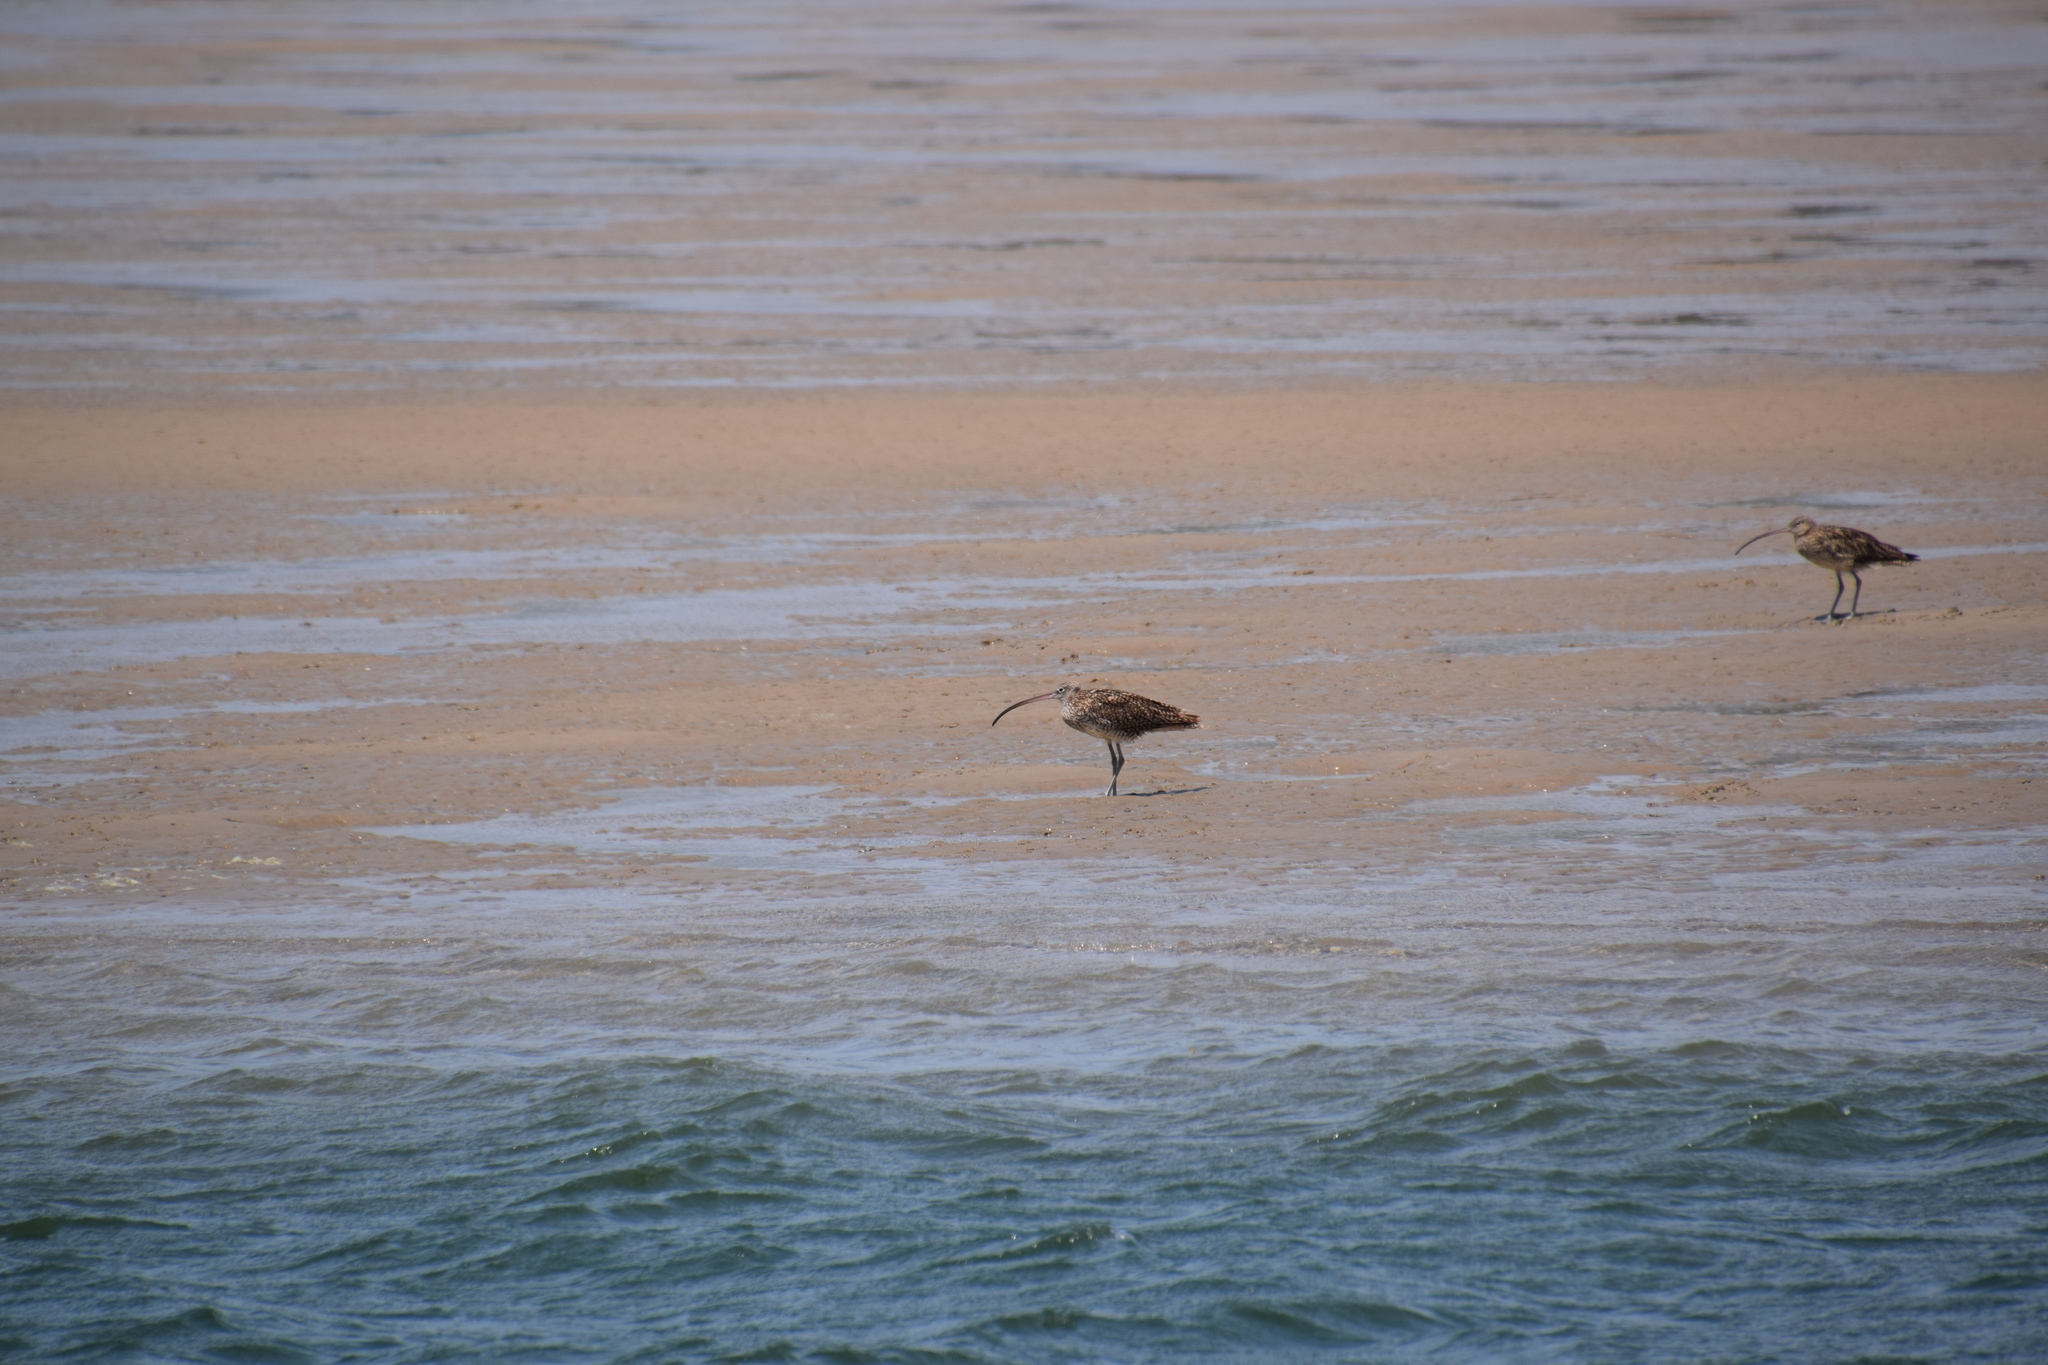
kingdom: Animalia
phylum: Chordata
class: Aves
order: Charadriiformes
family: Scolopacidae
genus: Numenius
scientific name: Numenius madagascariensis
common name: Far eastern curlew
